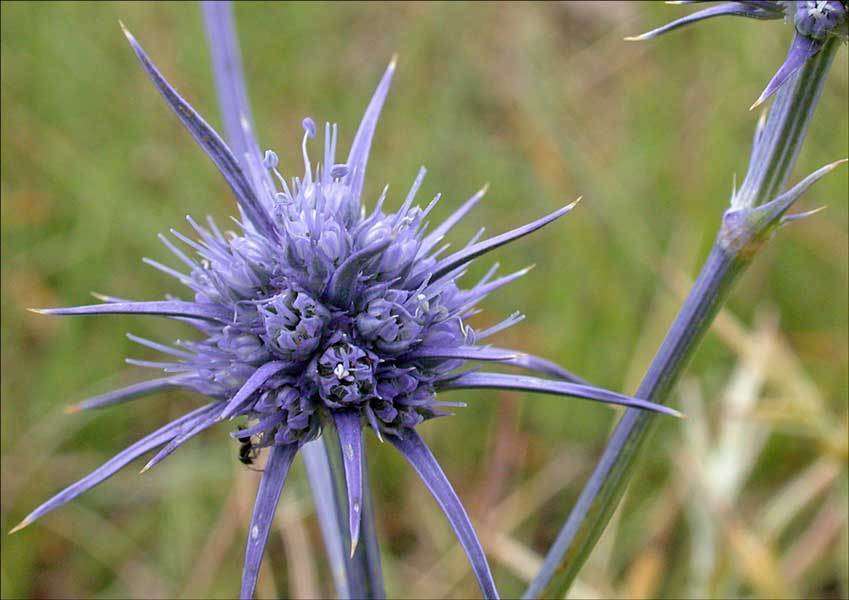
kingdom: Plantae
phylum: Tracheophyta
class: Magnoliopsida
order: Apiales
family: Apiaceae
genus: Eryngium
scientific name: Eryngium ovinum
